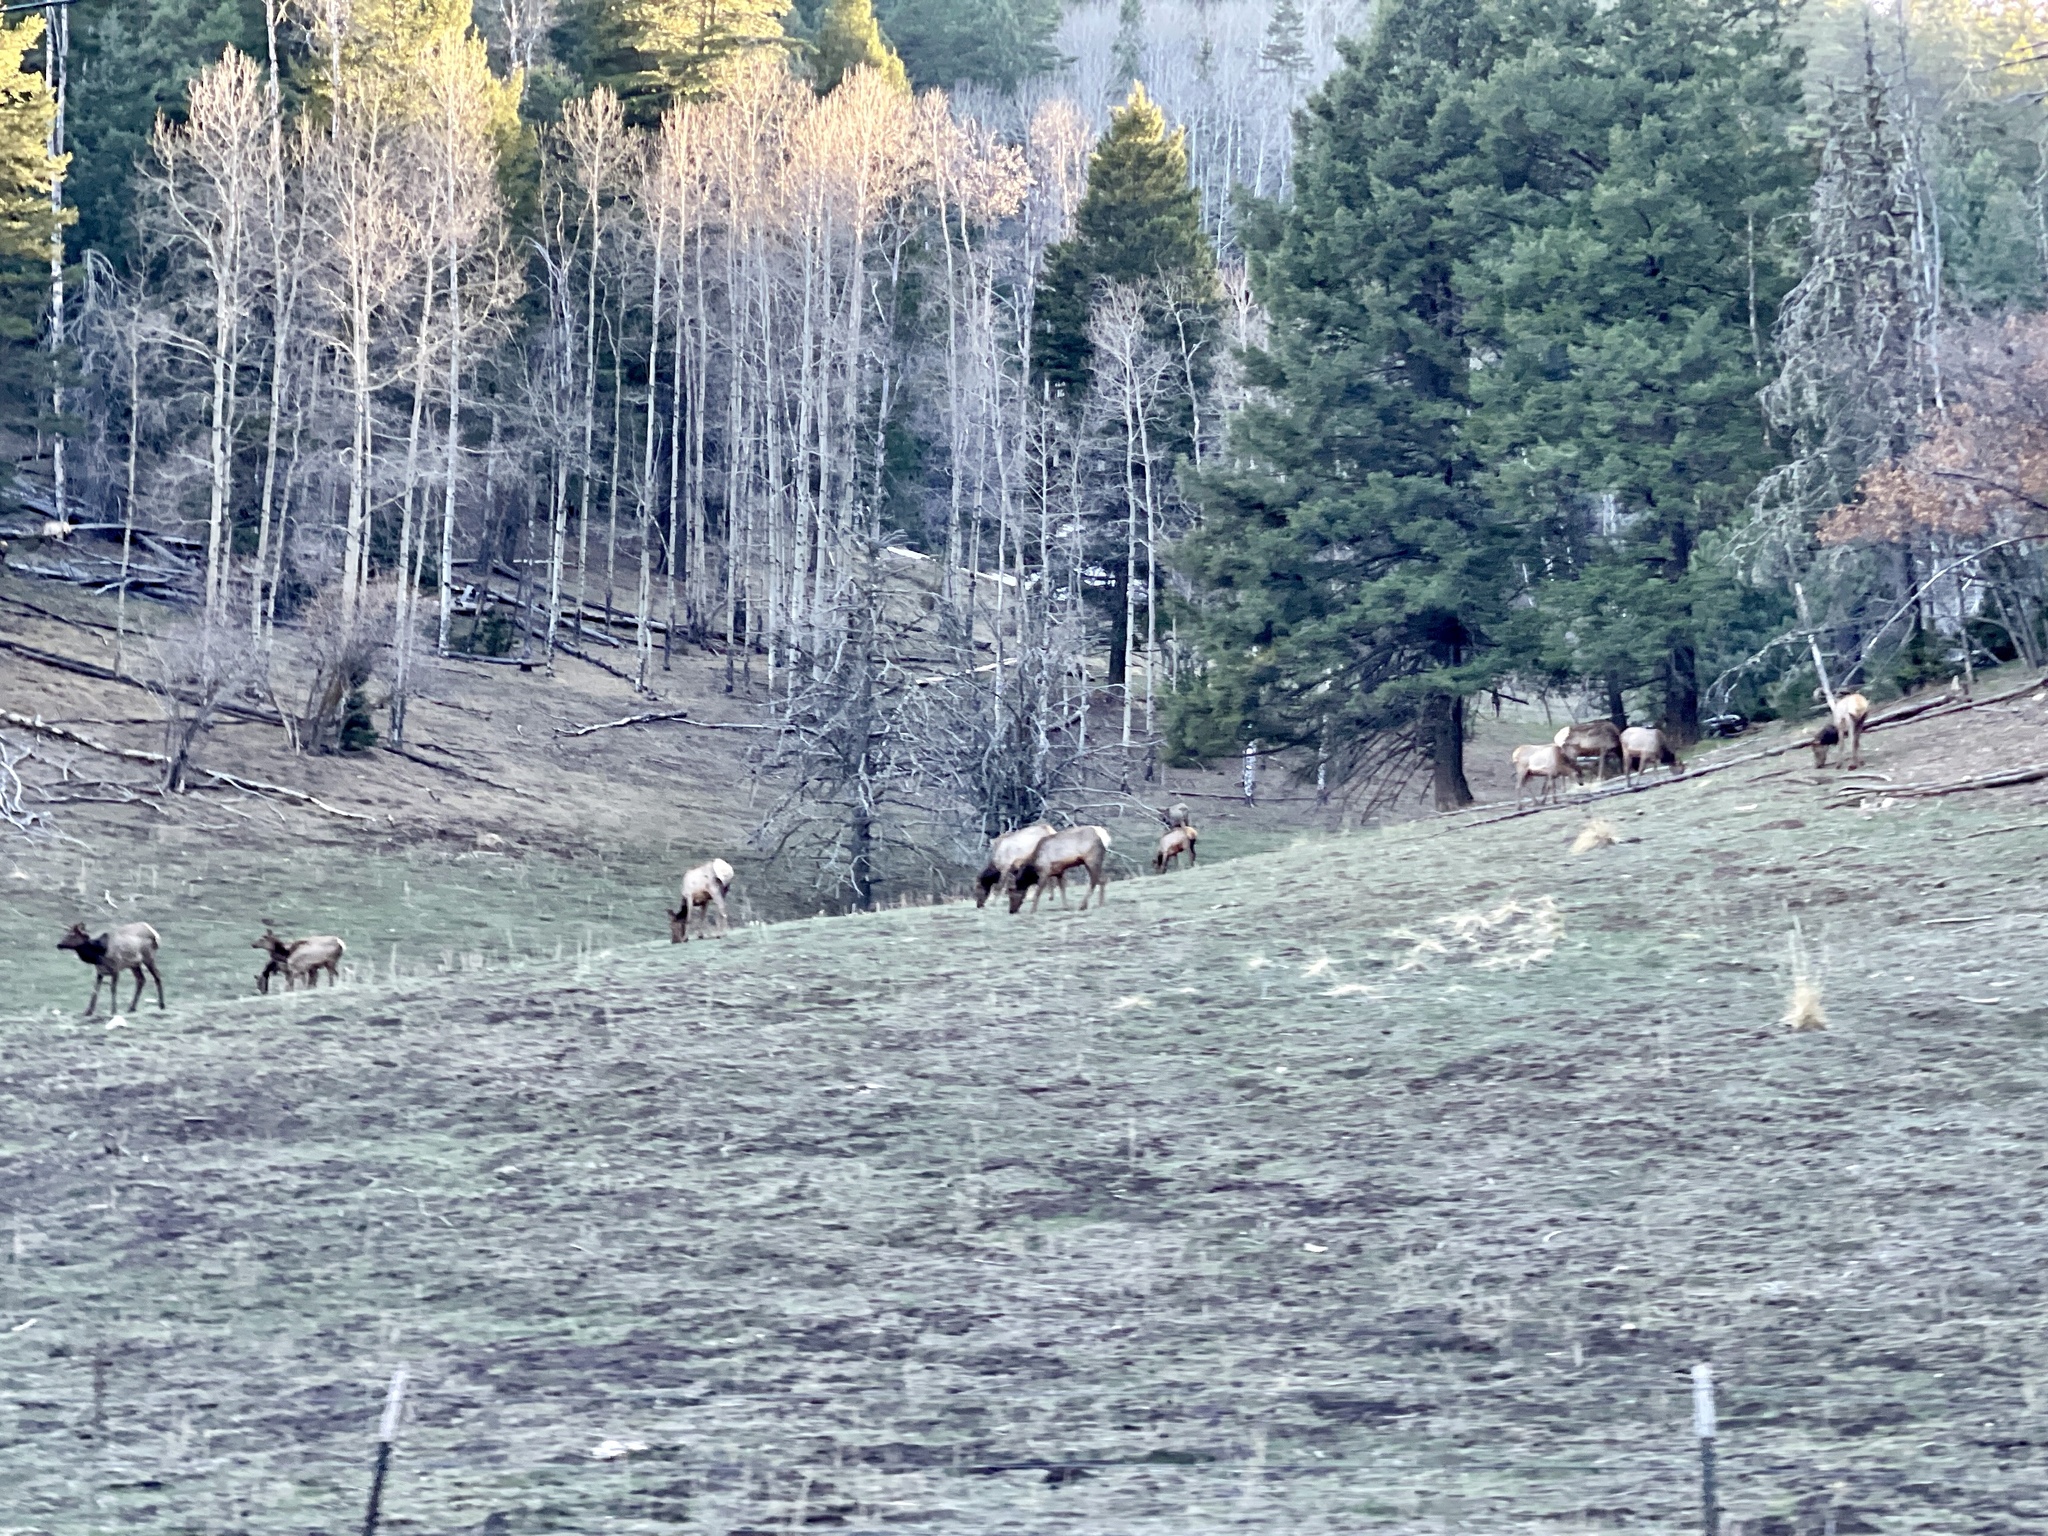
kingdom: Animalia
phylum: Chordata
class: Mammalia
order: Artiodactyla
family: Cervidae
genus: Cervus
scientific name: Cervus elaphus
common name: Red deer
